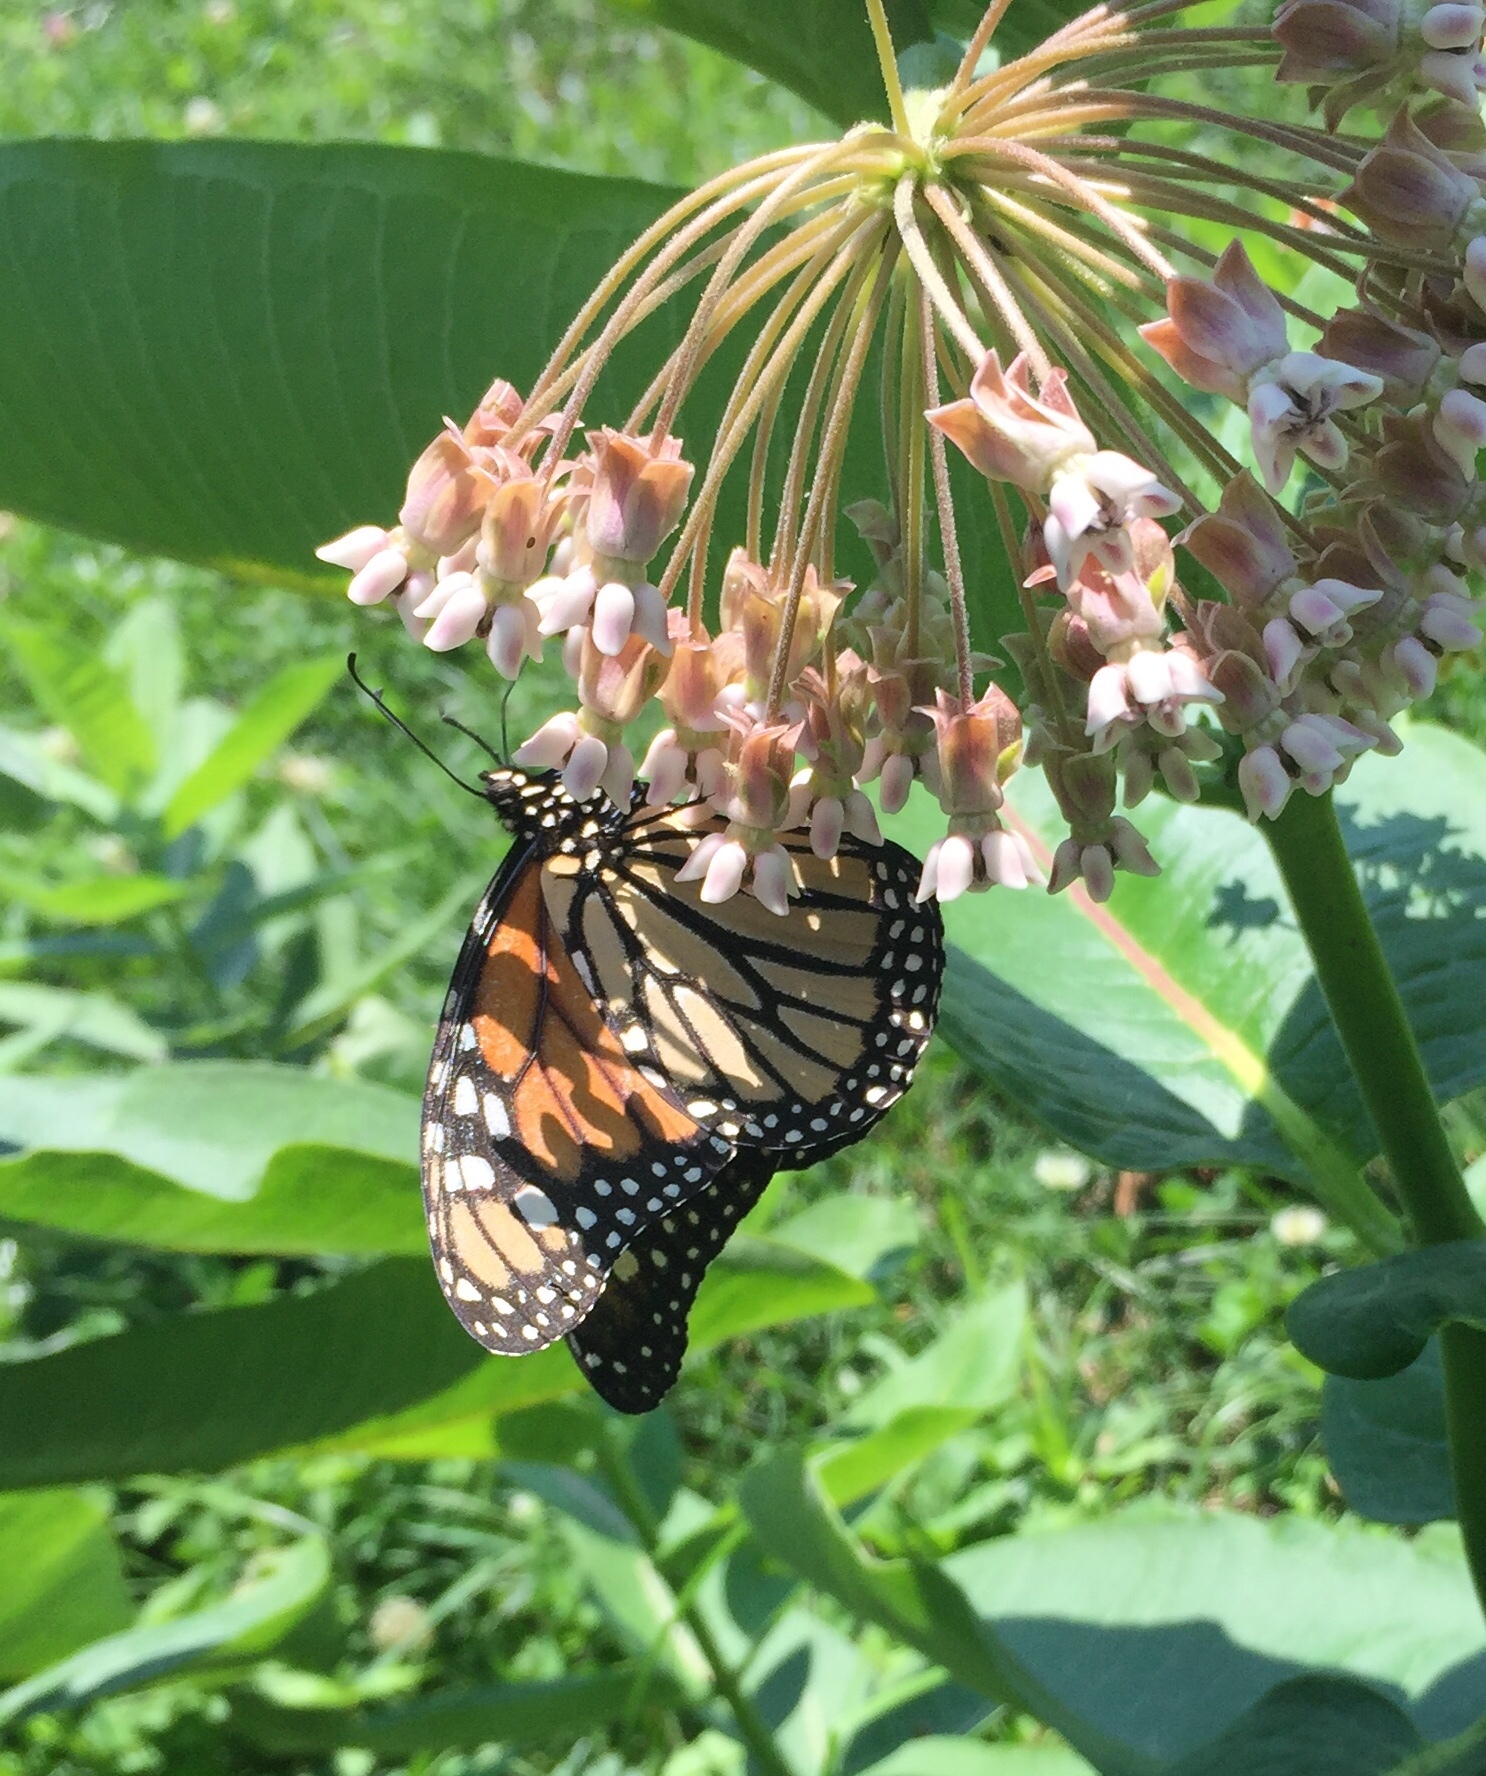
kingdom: Animalia
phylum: Arthropoda
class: Insecta
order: Lepidoptera
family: Nymphalidae
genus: Danaus
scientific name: Danaus plexippus
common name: Monarch
